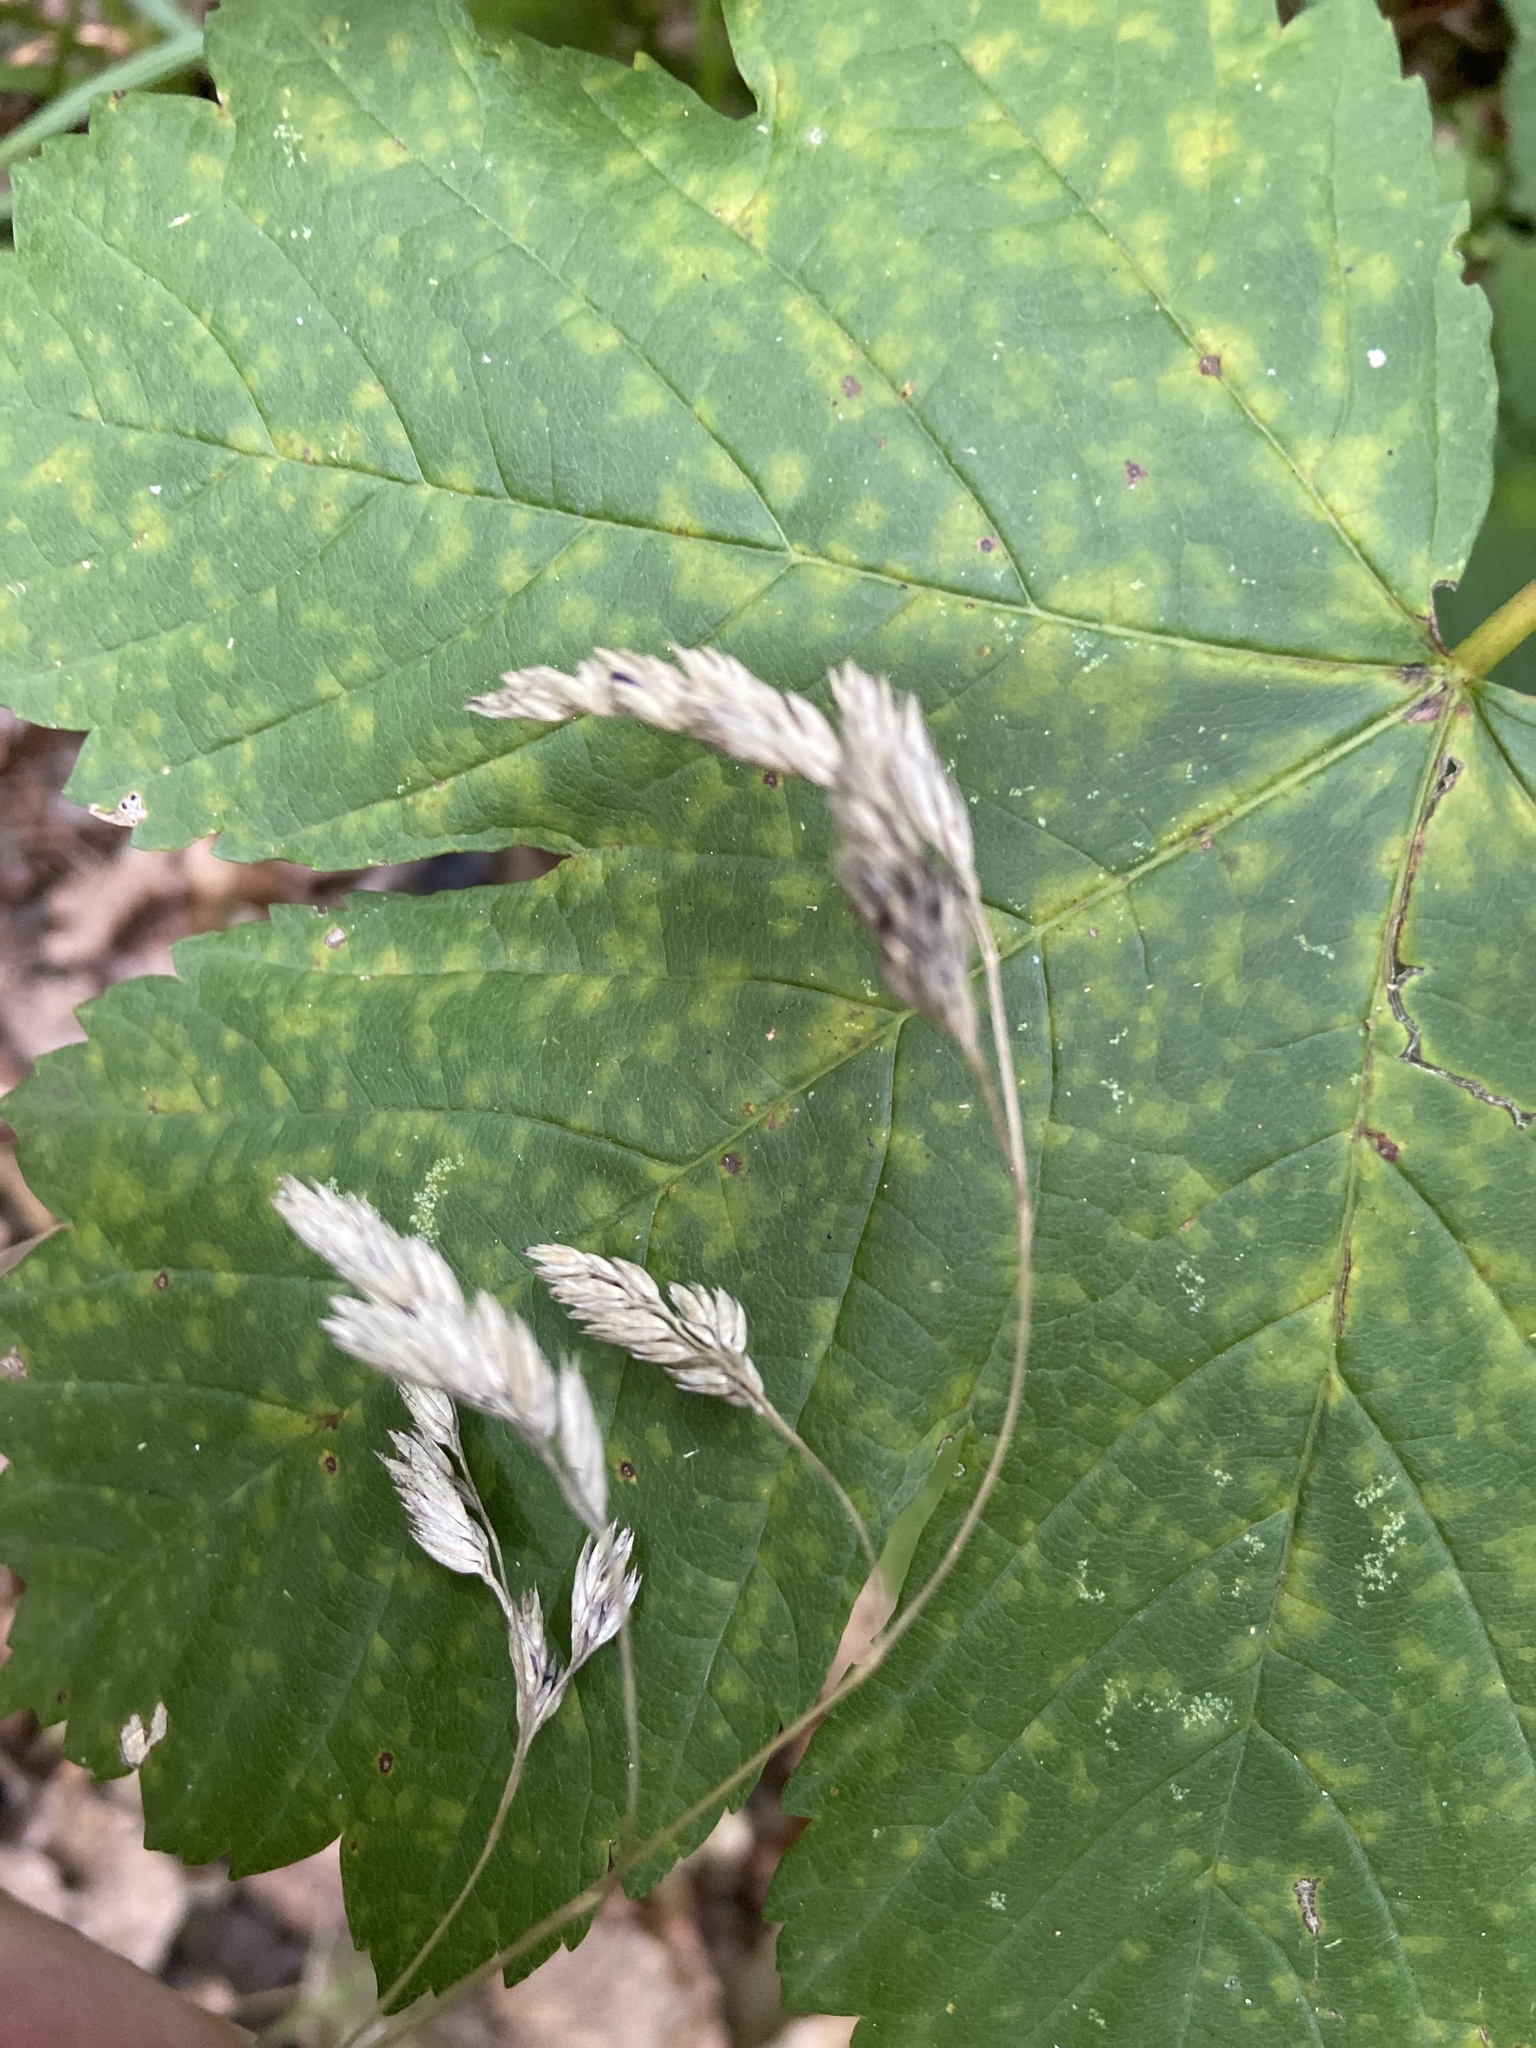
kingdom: Plantae
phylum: Tracheophyta
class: Liliopsida
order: Poales
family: Poaceae
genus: Dactylis
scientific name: Dactylis glomerata
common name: Orchardgrass
